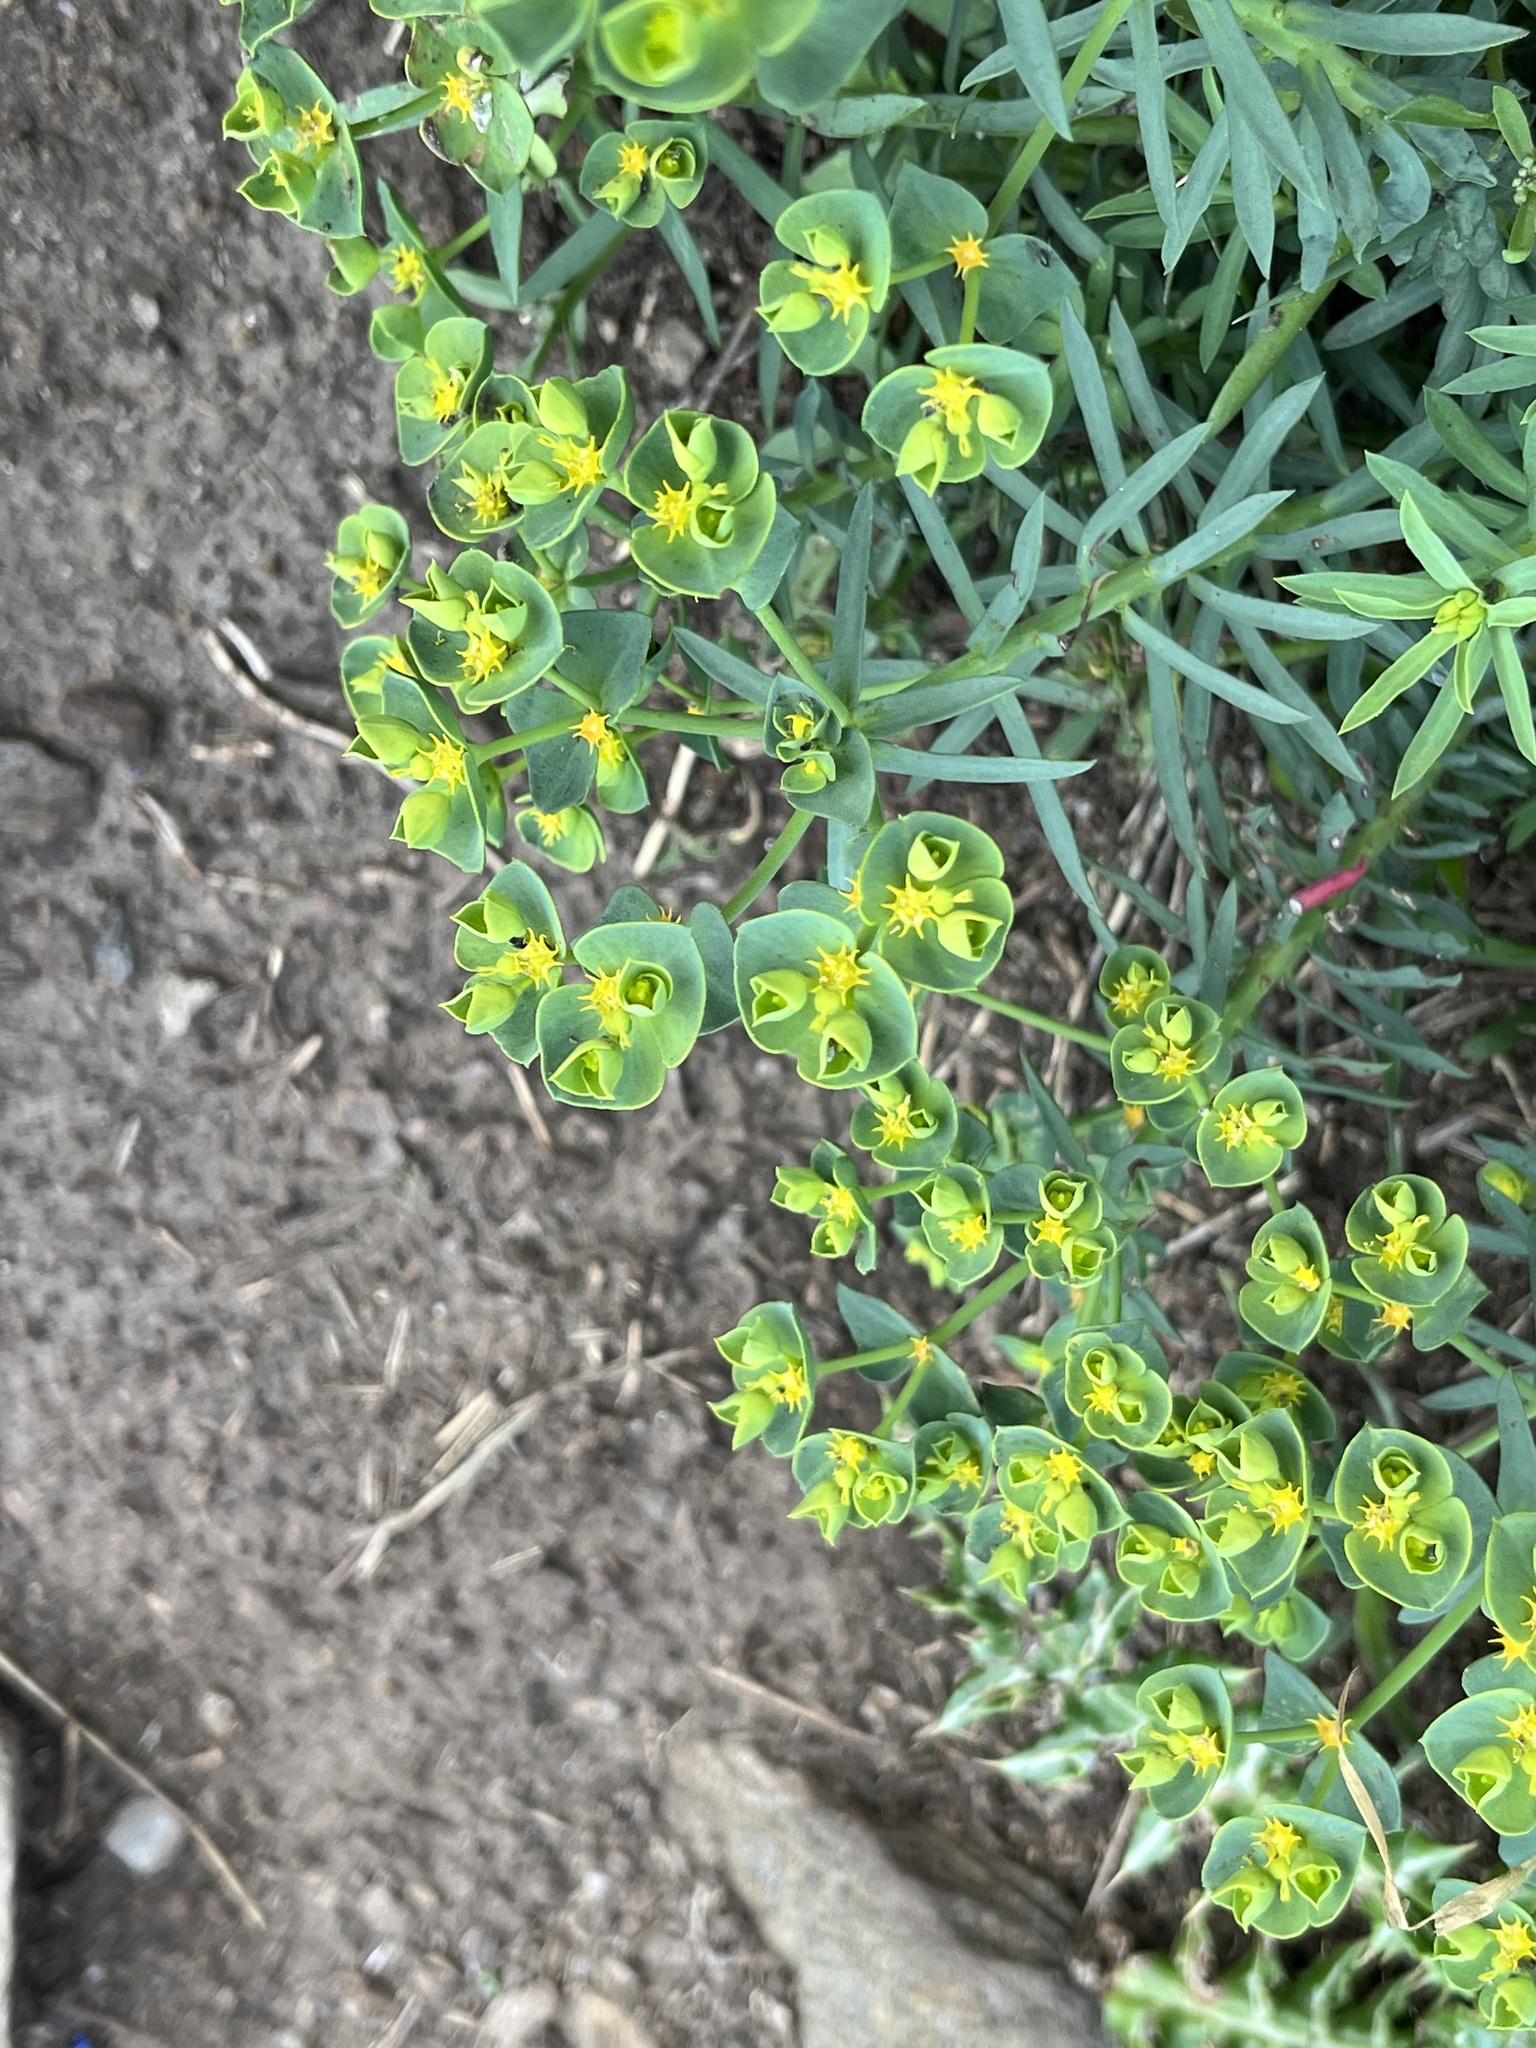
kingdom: Plantae
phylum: Tracheophyta
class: Magnoliopsida
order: Malpighiales
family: Euphorbiaceae
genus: Euphorbia
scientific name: Euphorbia paralias
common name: Sea spurge
